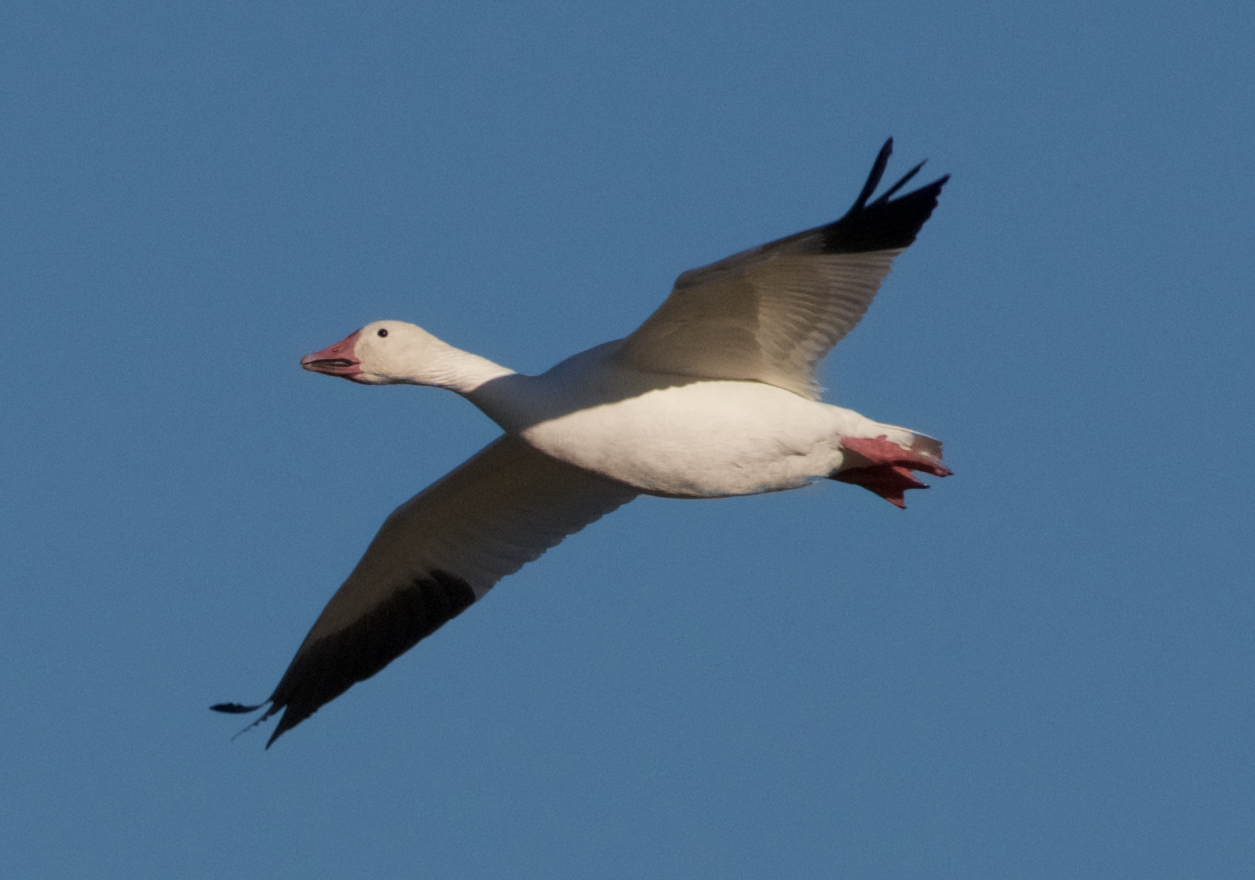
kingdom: Animalia
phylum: Chordata
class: Aves
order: Anseriformes
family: Anatidae
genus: Anser
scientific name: Anser caerulescens
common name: Snow goose
